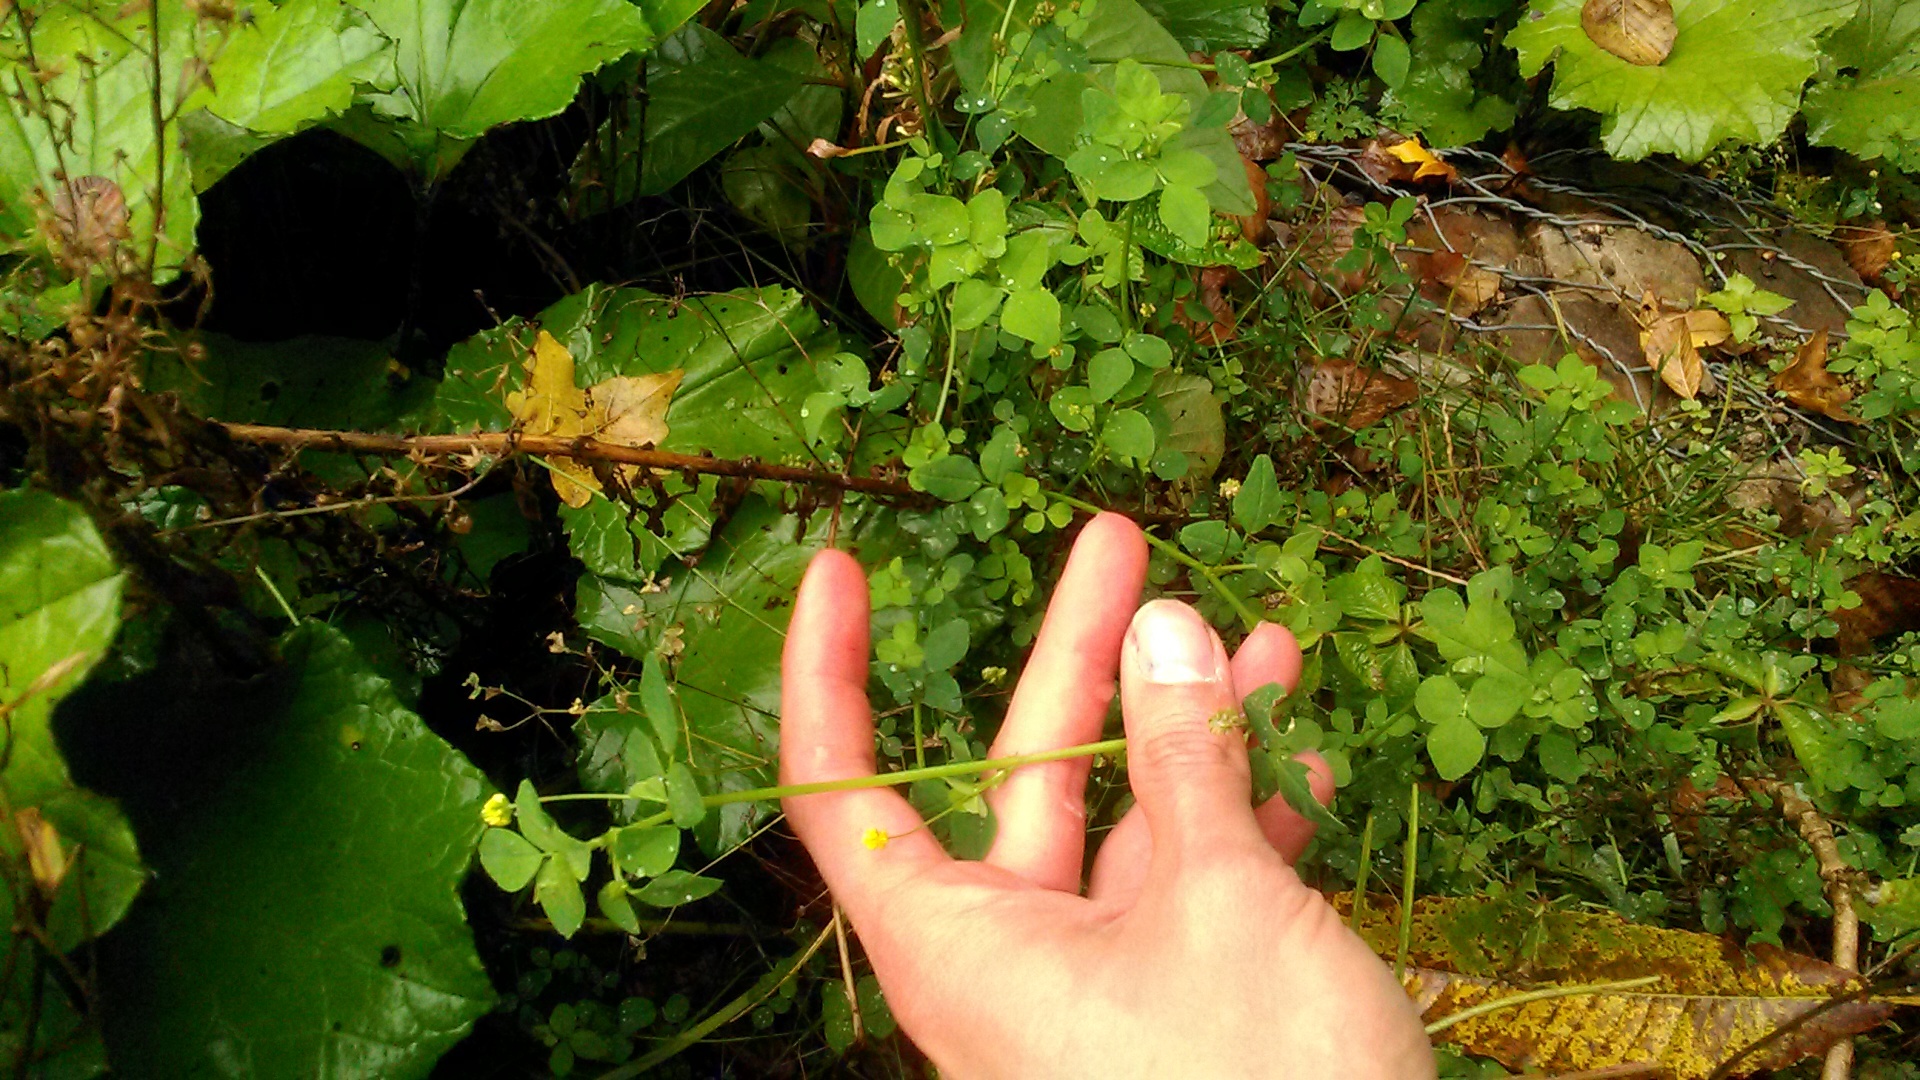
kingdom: Plantae
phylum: Tracheophyta
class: Magnoliopsida
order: Fabales
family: Fabaceae
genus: Medicago
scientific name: Medicago lupulina
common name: Black medick
